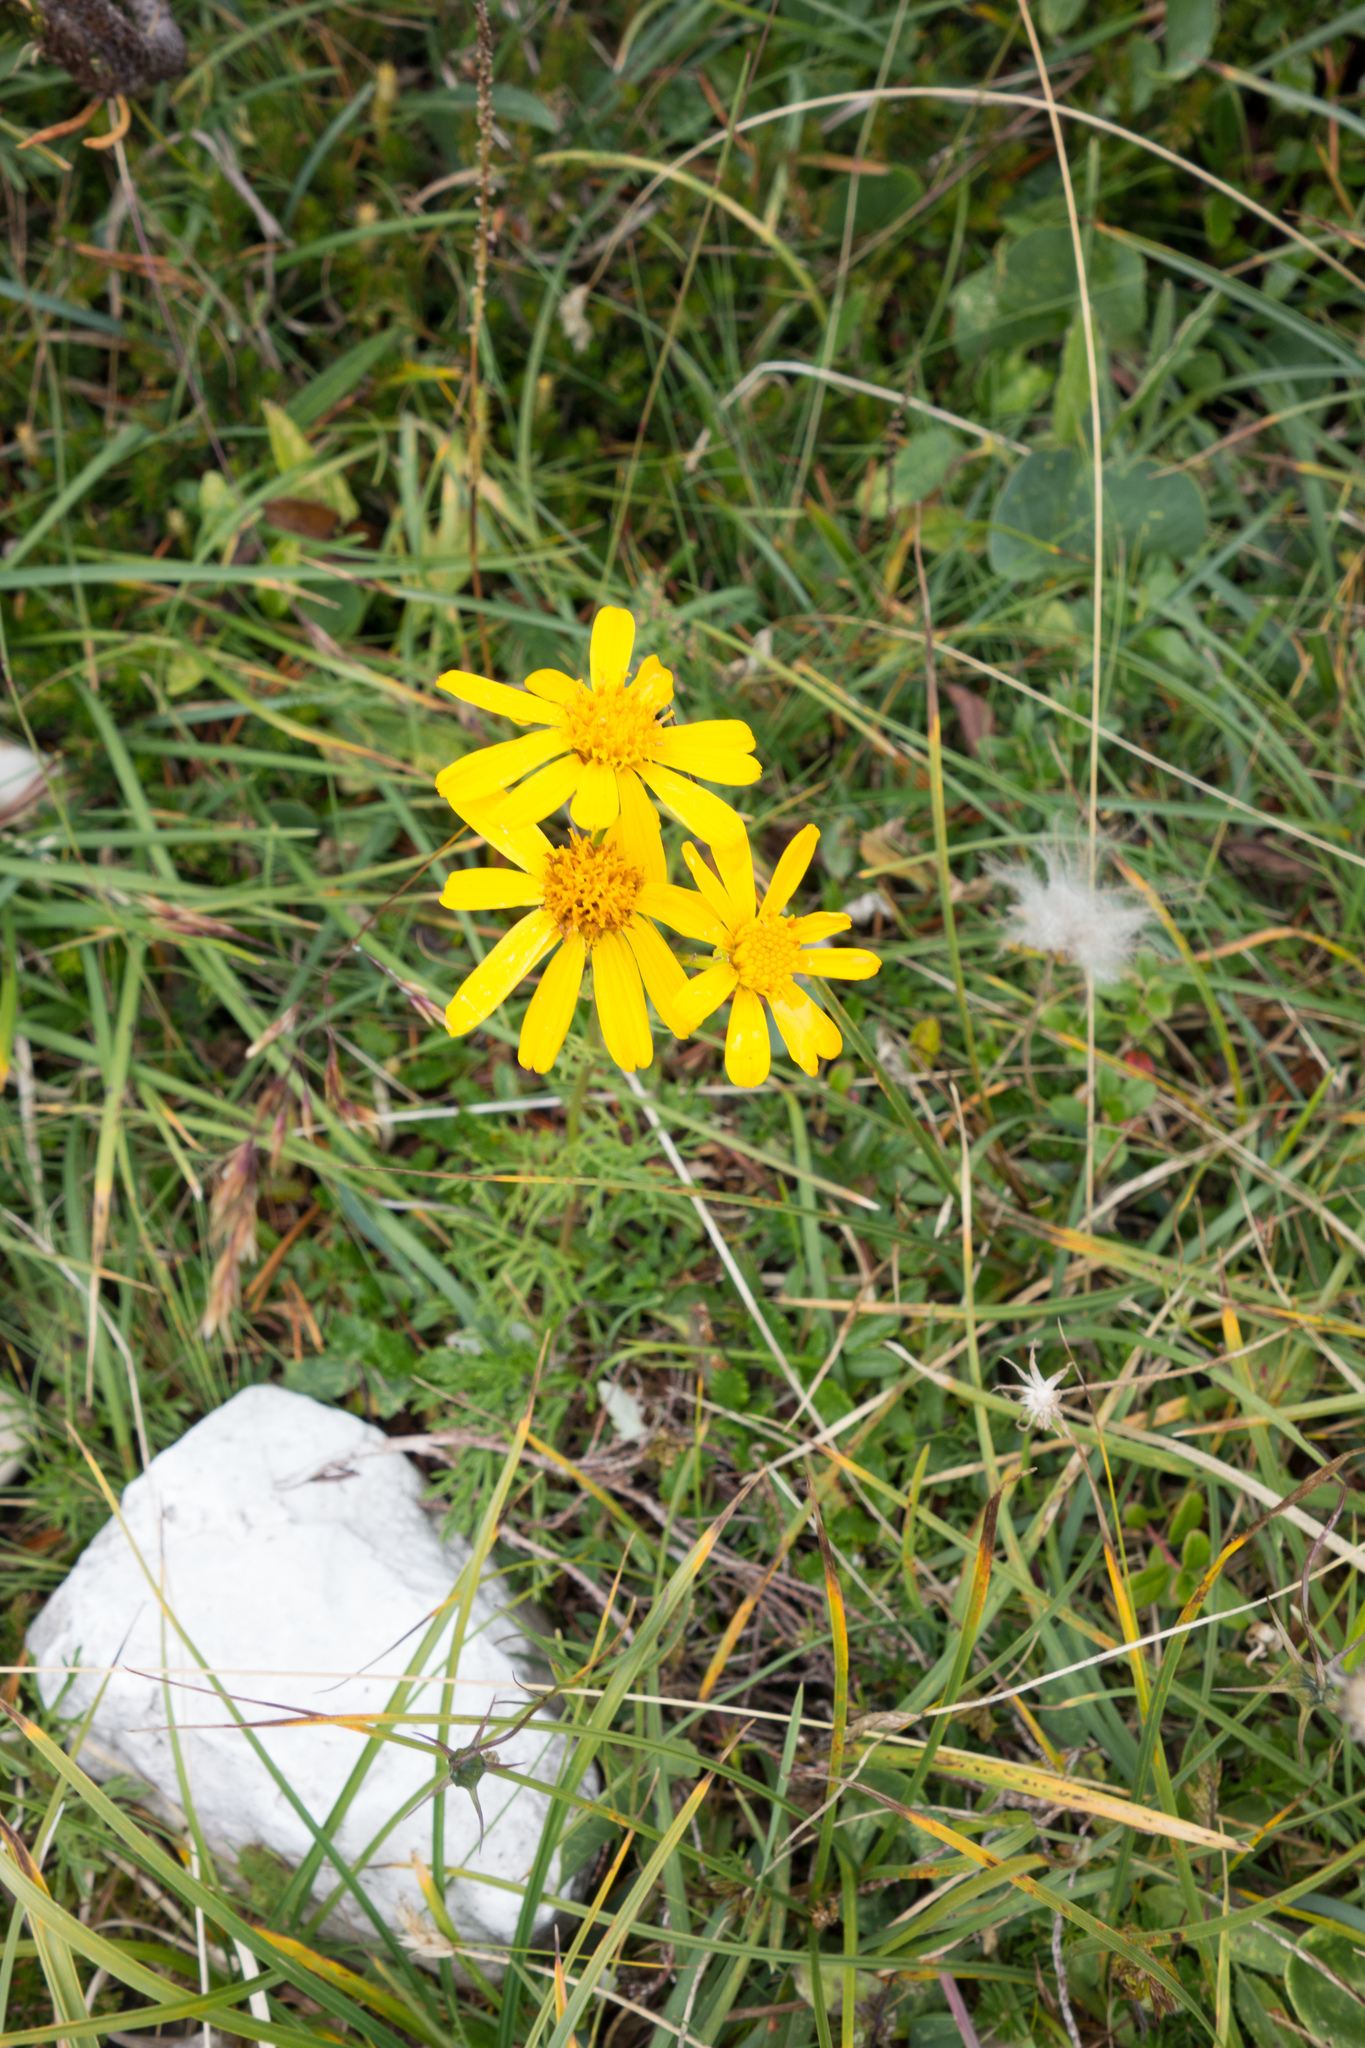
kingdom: Plantae
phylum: Tracheophyta
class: Magnoliopsida
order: Asterales
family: Asteraceae
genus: Jacobaea
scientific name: Jacobaea abrotanifolia
